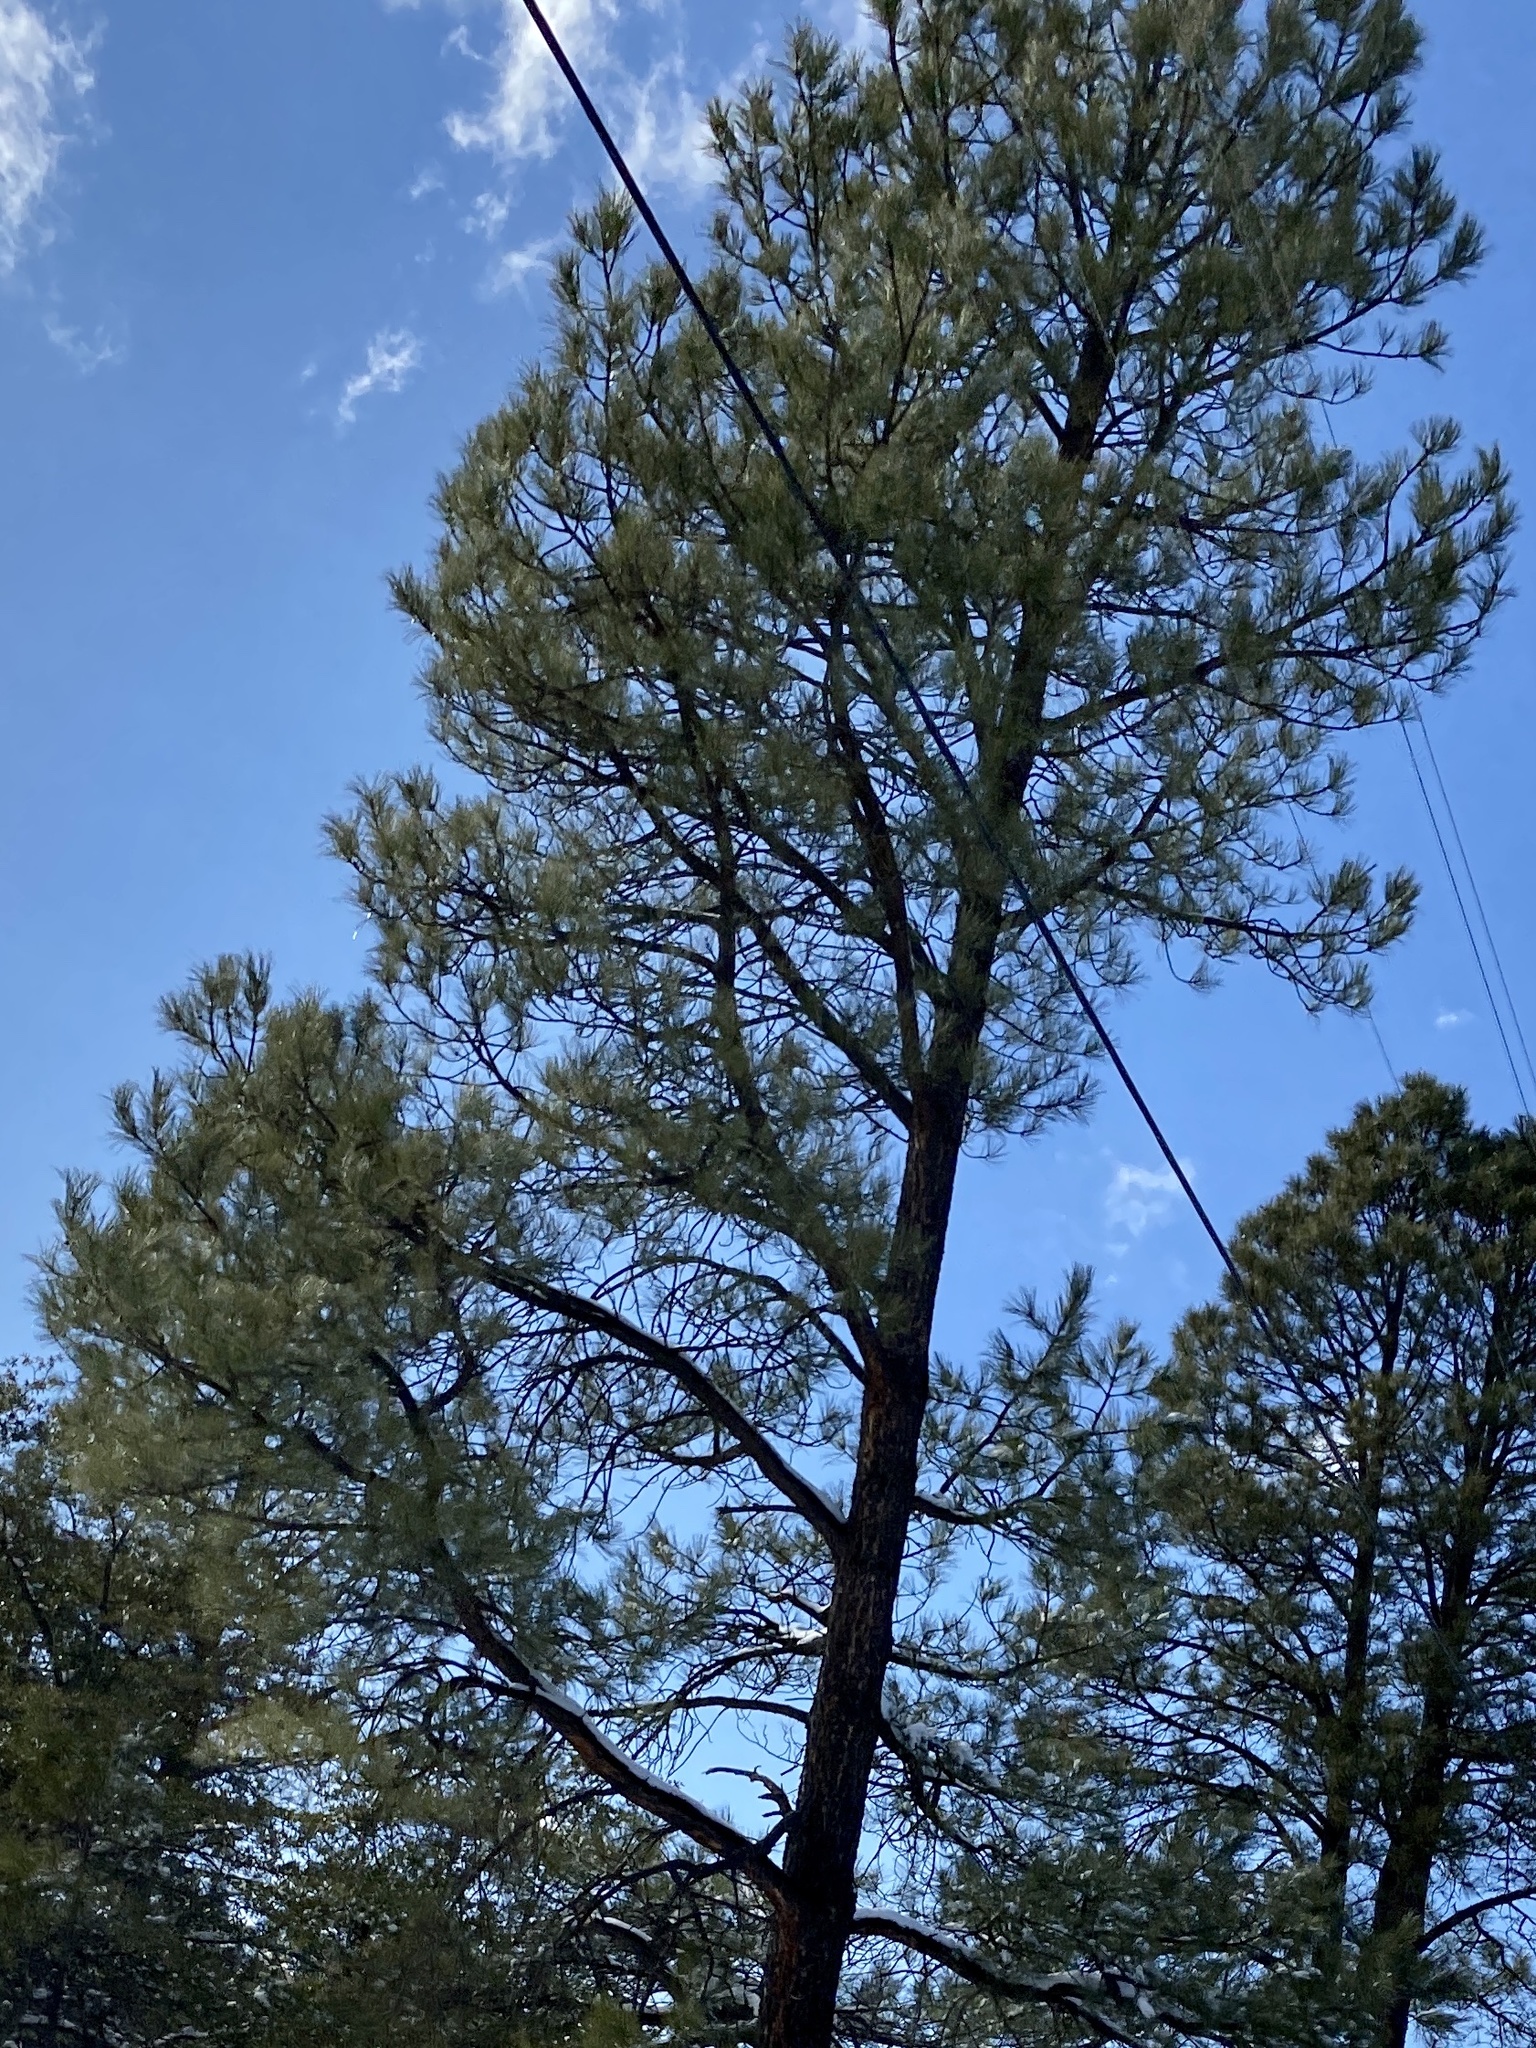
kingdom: Plantae
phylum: Tracheophyta
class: Pinopsida
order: Pinales
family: Pinaceae
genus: Pinus
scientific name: Pinus ponderosa
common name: Western yellow-pine
